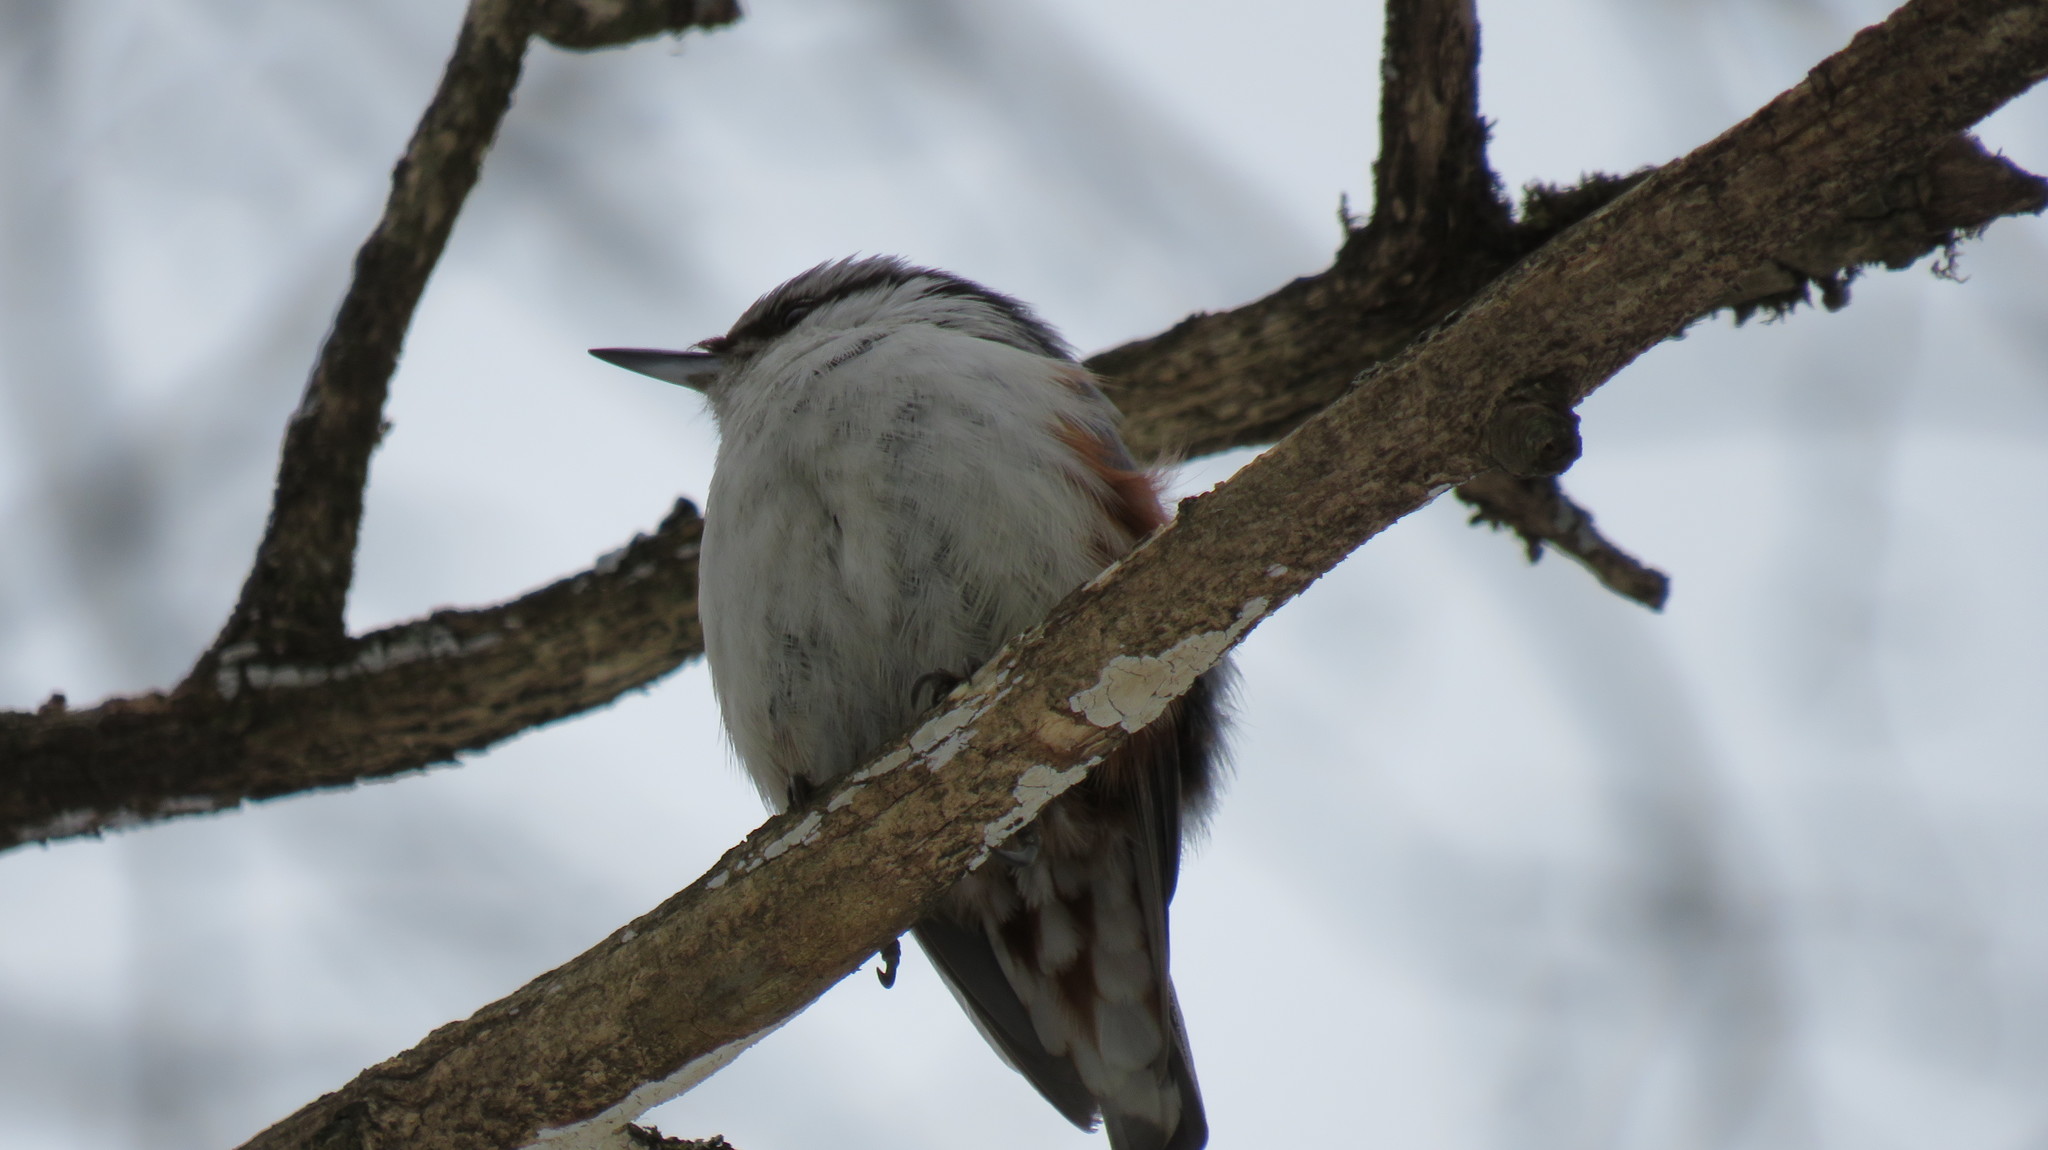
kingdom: Animalia
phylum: Chordata
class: Aves
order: Passeriformes
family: Sittidae
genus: Sitta
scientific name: Sitta europaea
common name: Eurasian nuthatch
